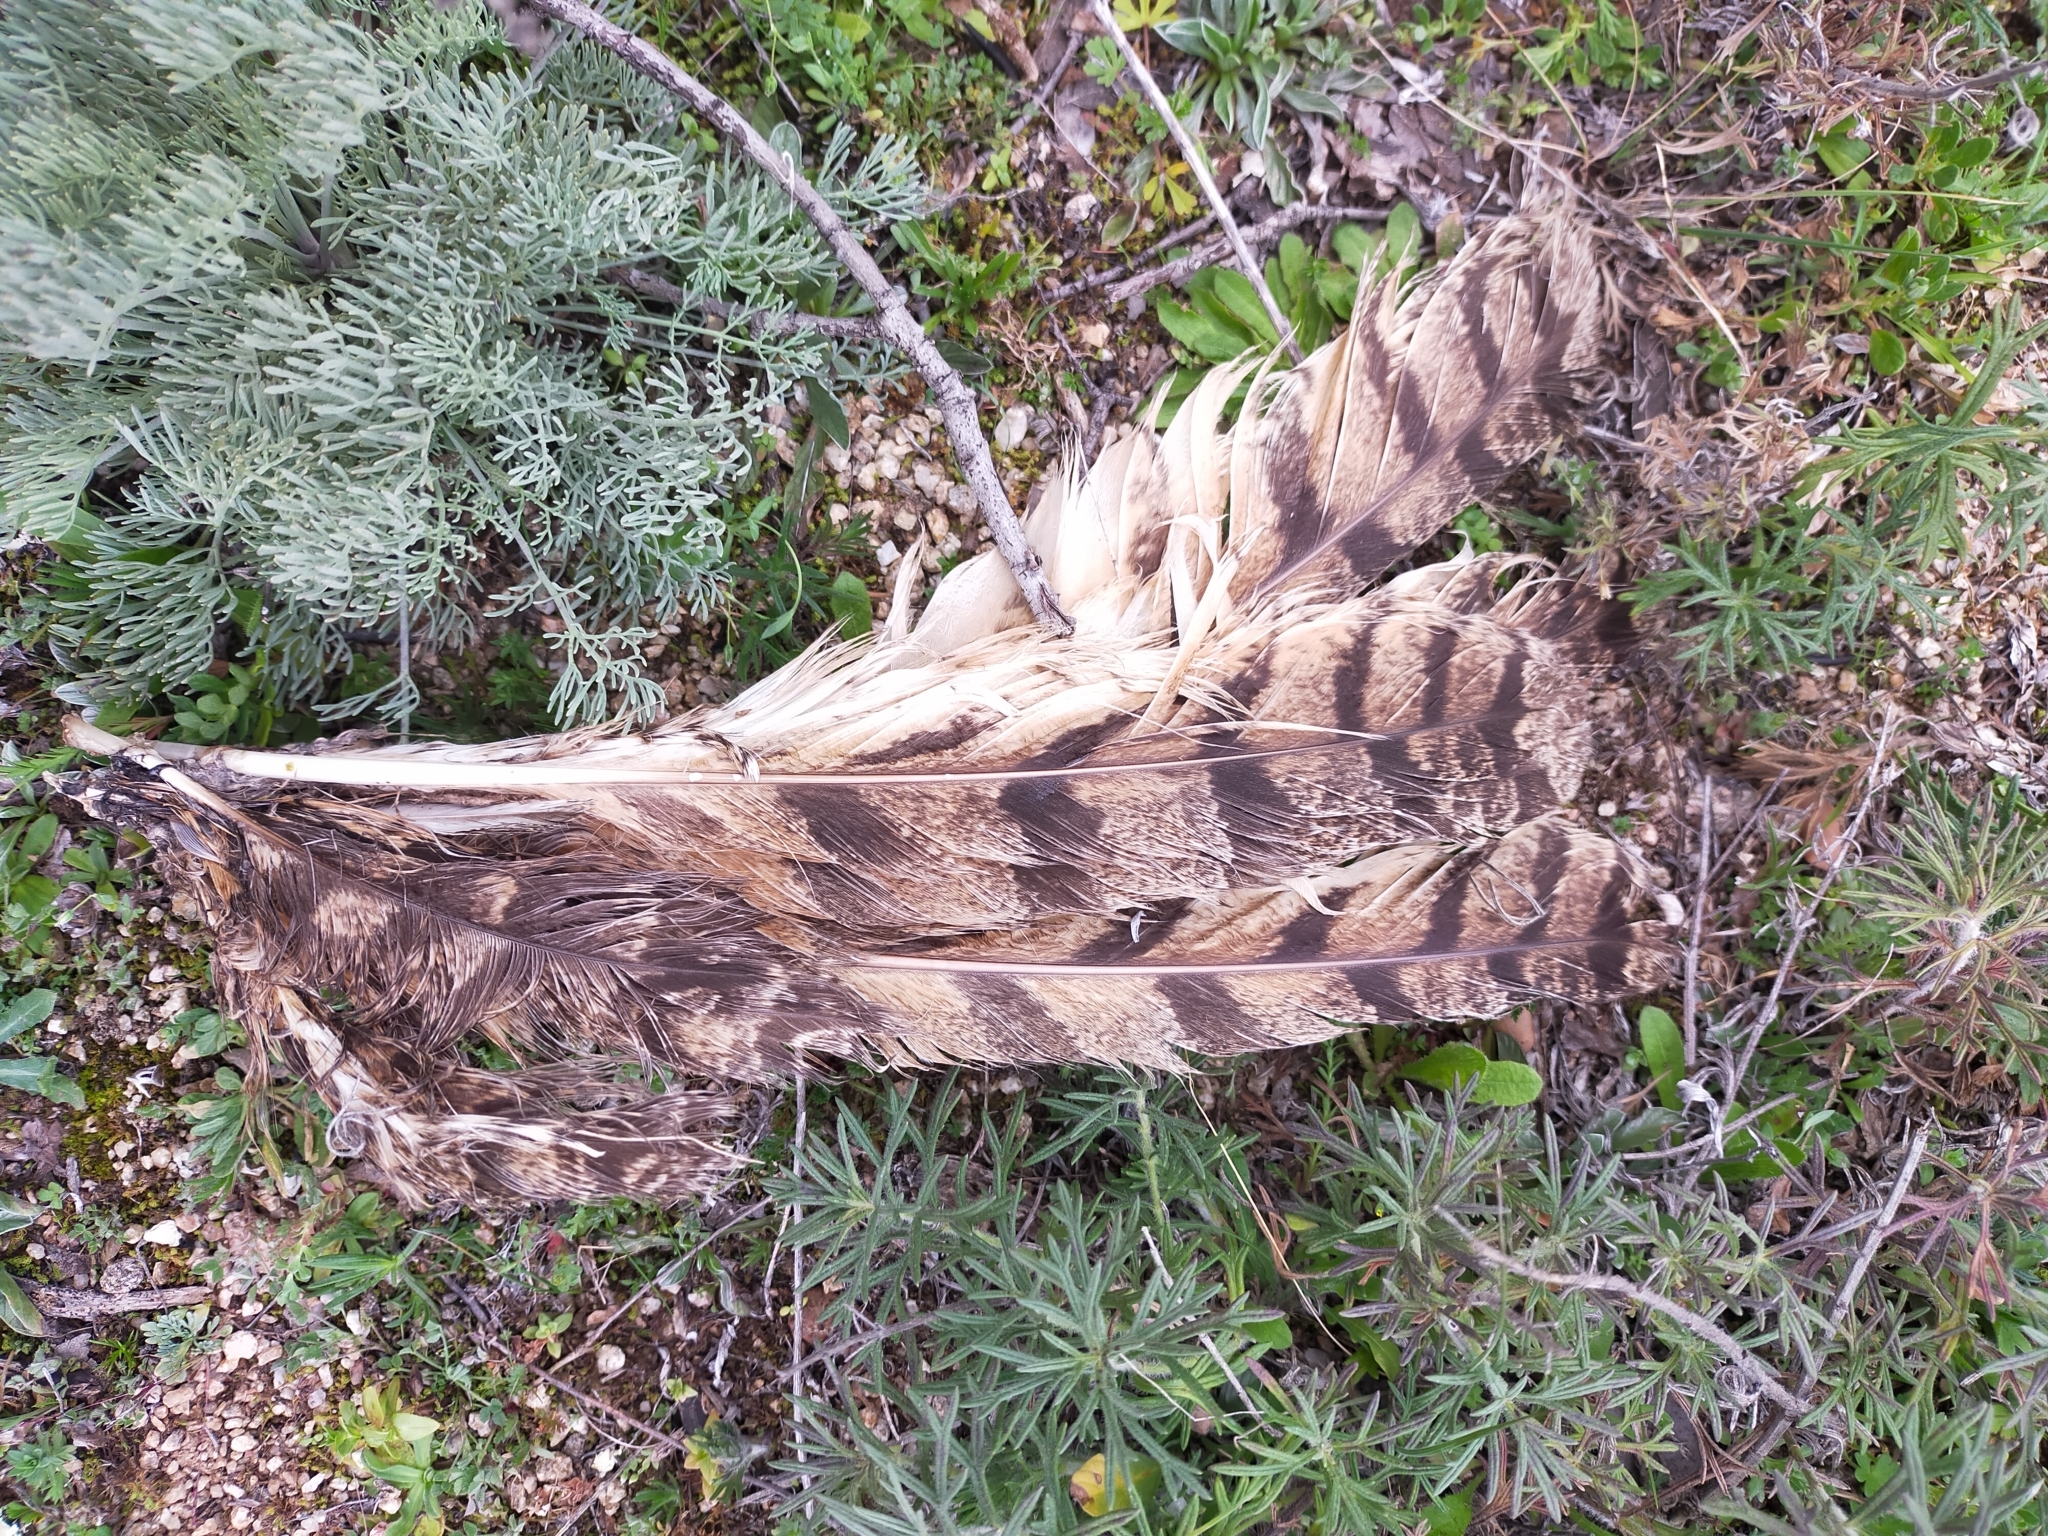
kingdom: Animalia
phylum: Chordata
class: Aves
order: Strigiformes
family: Strigidae
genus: Bubo
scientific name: Bubo bubo
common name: Eurasian eagle-owl
